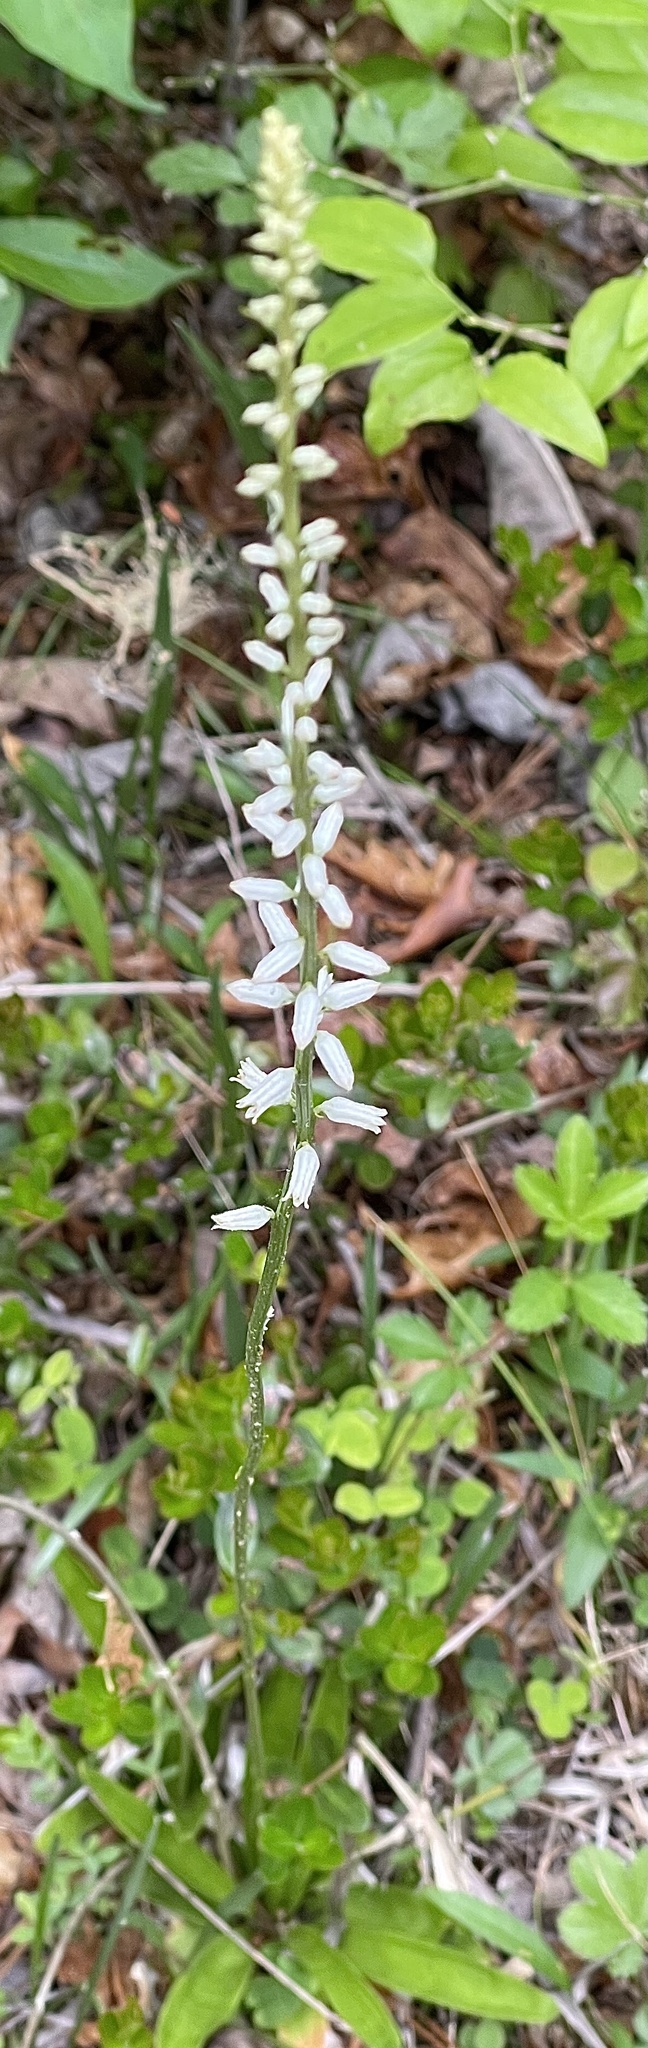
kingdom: Plantae
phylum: Tracheophyta
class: Liliopsida
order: Dioscoreales
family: Nartheciaceae
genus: Aletris
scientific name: Aletris farinosa
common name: Colicroot
